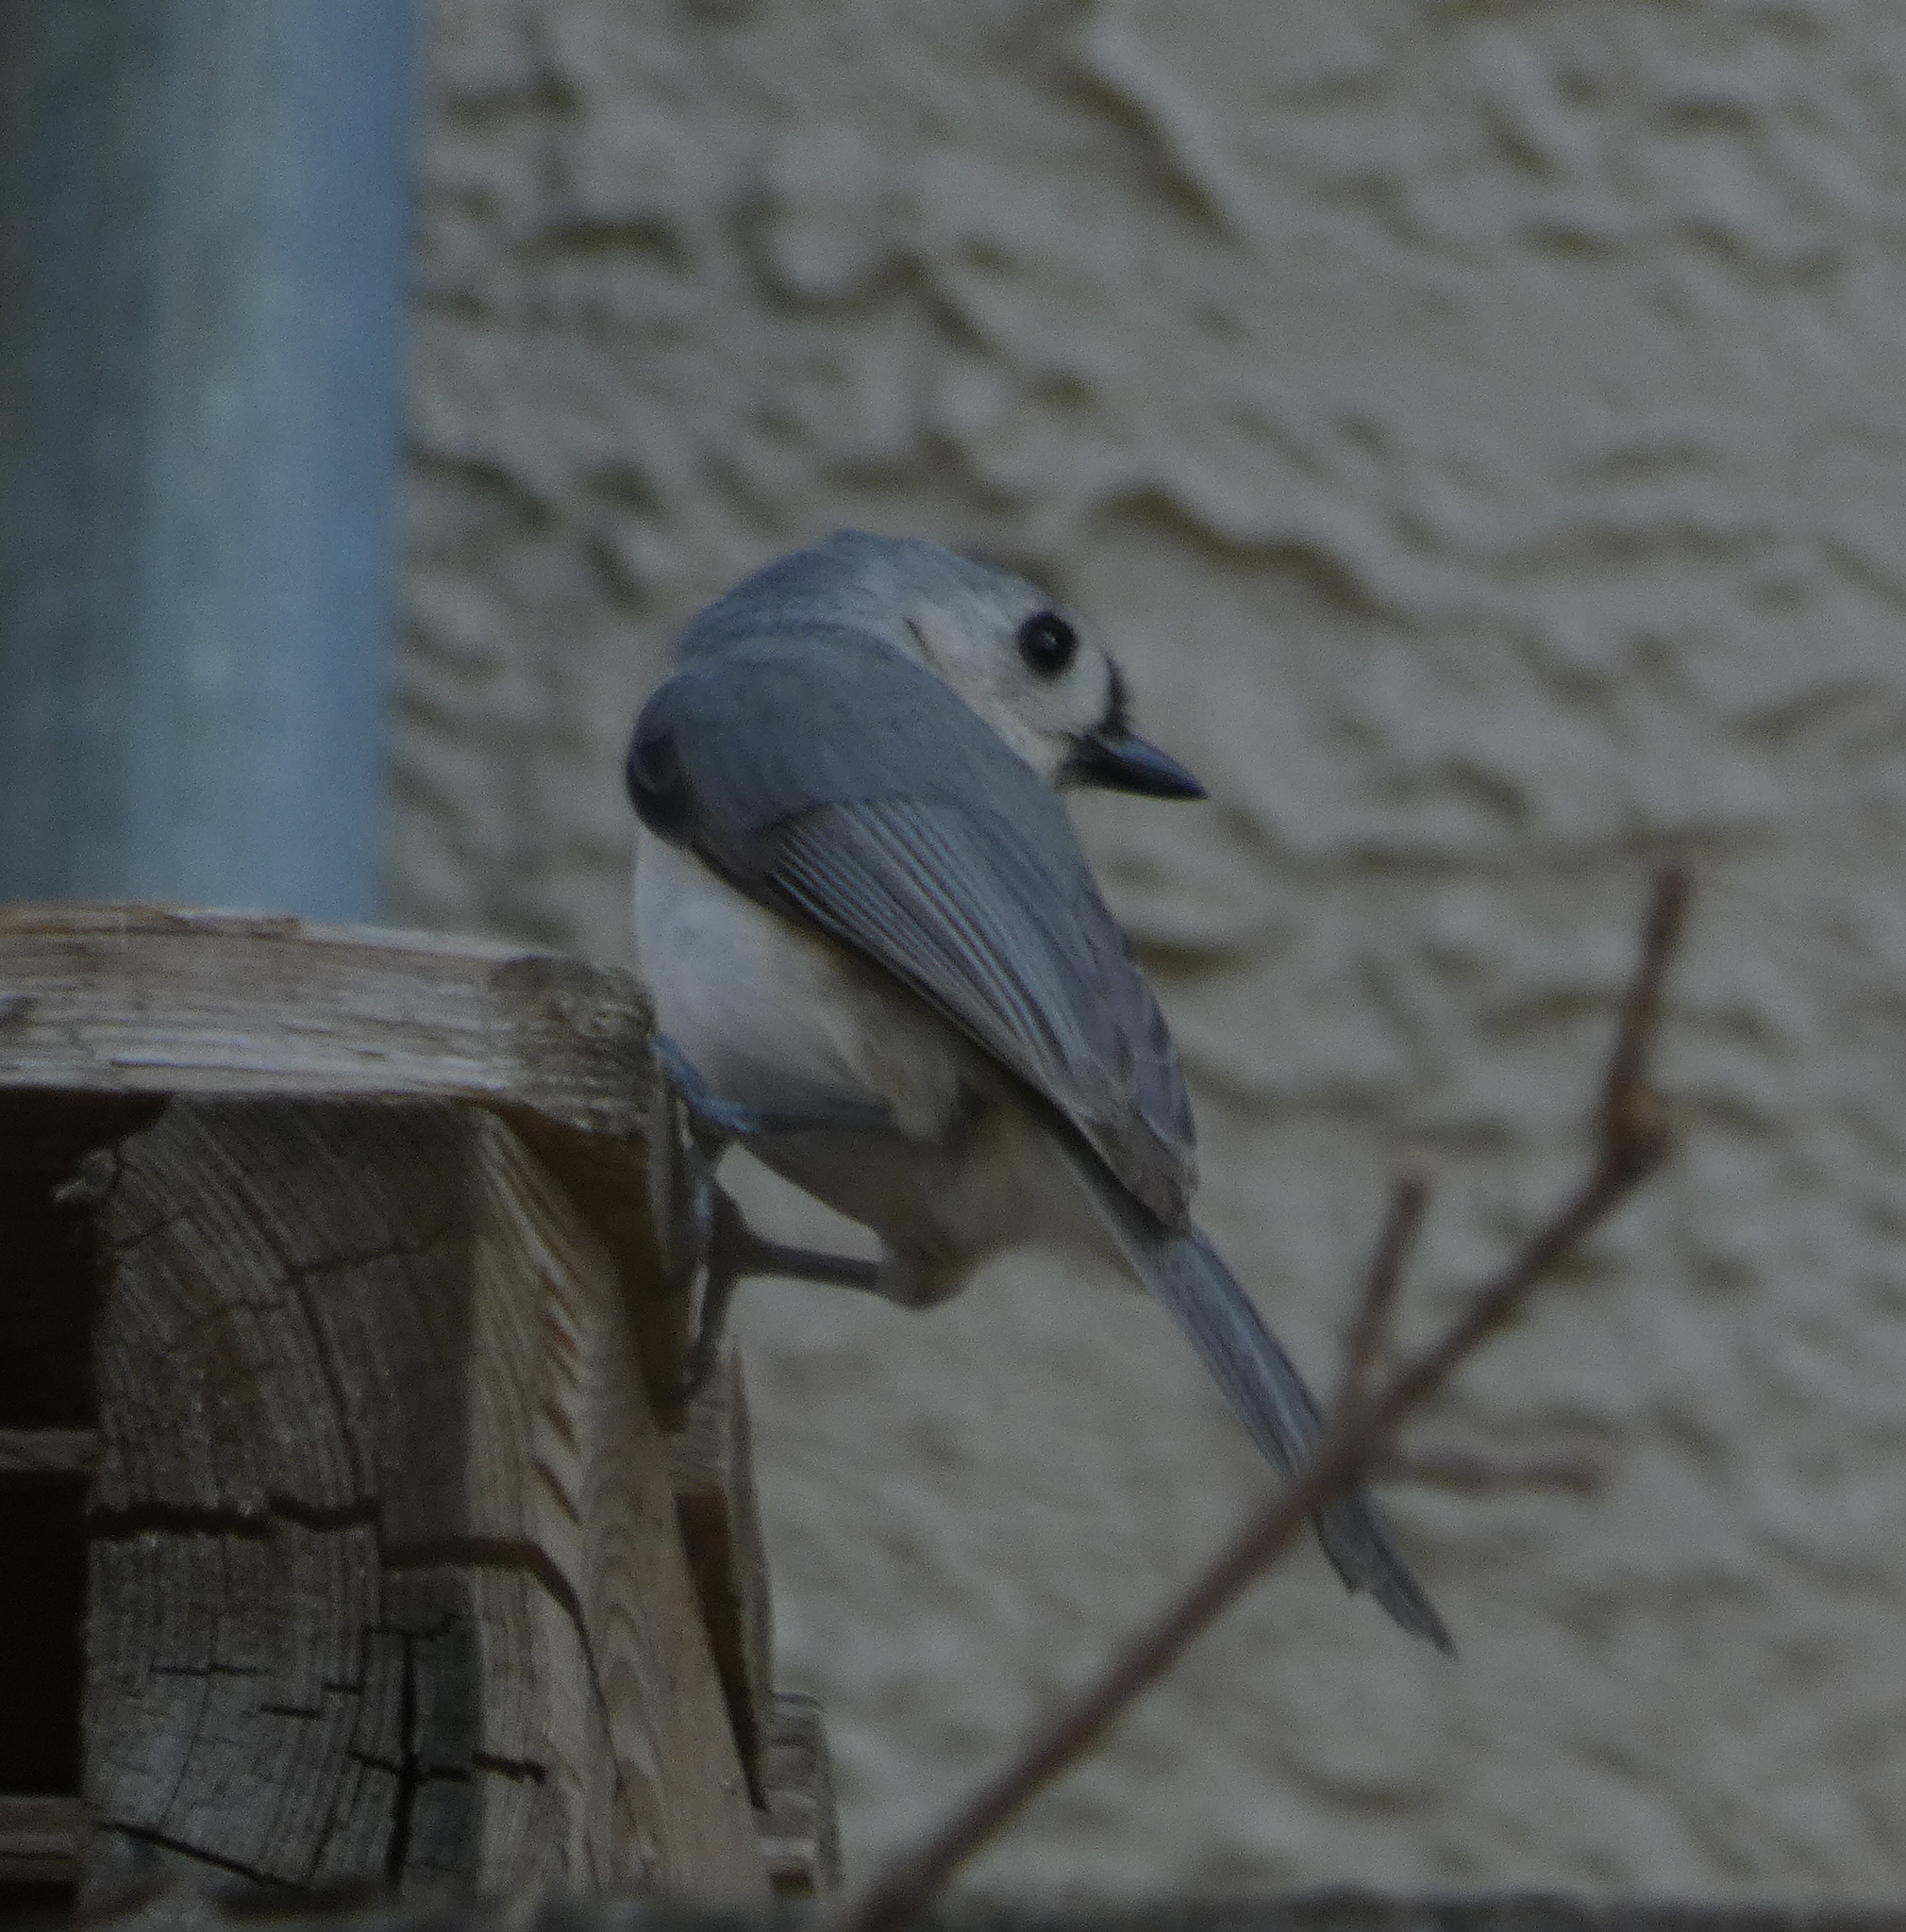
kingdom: Animalia
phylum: Chordata
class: Aves
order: Passeriformes
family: Paridae
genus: Baeolophus
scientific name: Baeolophus bicolor
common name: Tufted titmouse
